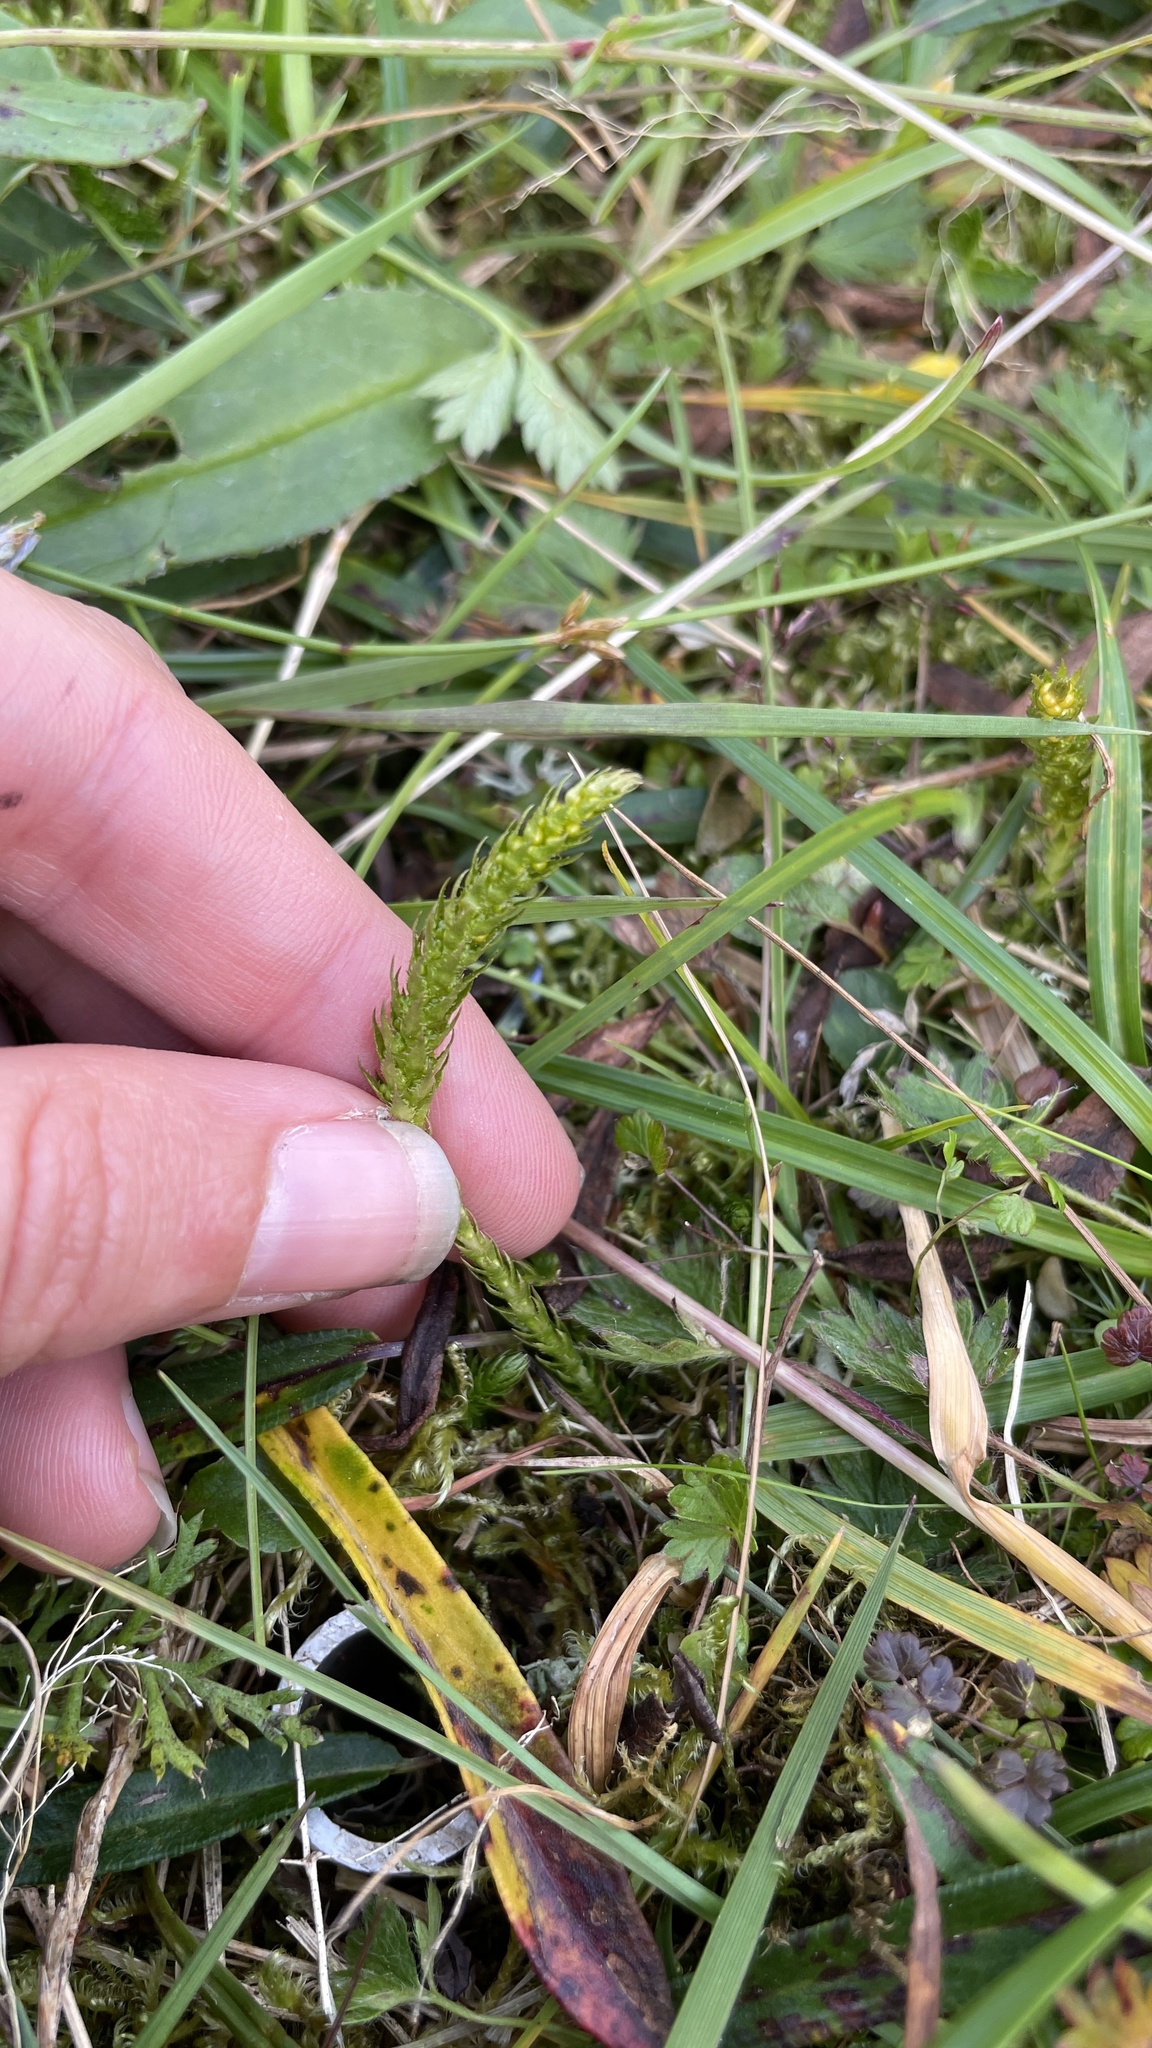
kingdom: Plantae
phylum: Tracheophyta
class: Lycopodiopsida
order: Selaginellales
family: Selaginellaceae
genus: Selaginella
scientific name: Selaginella selaginoides
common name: Prickly mountain-moss
